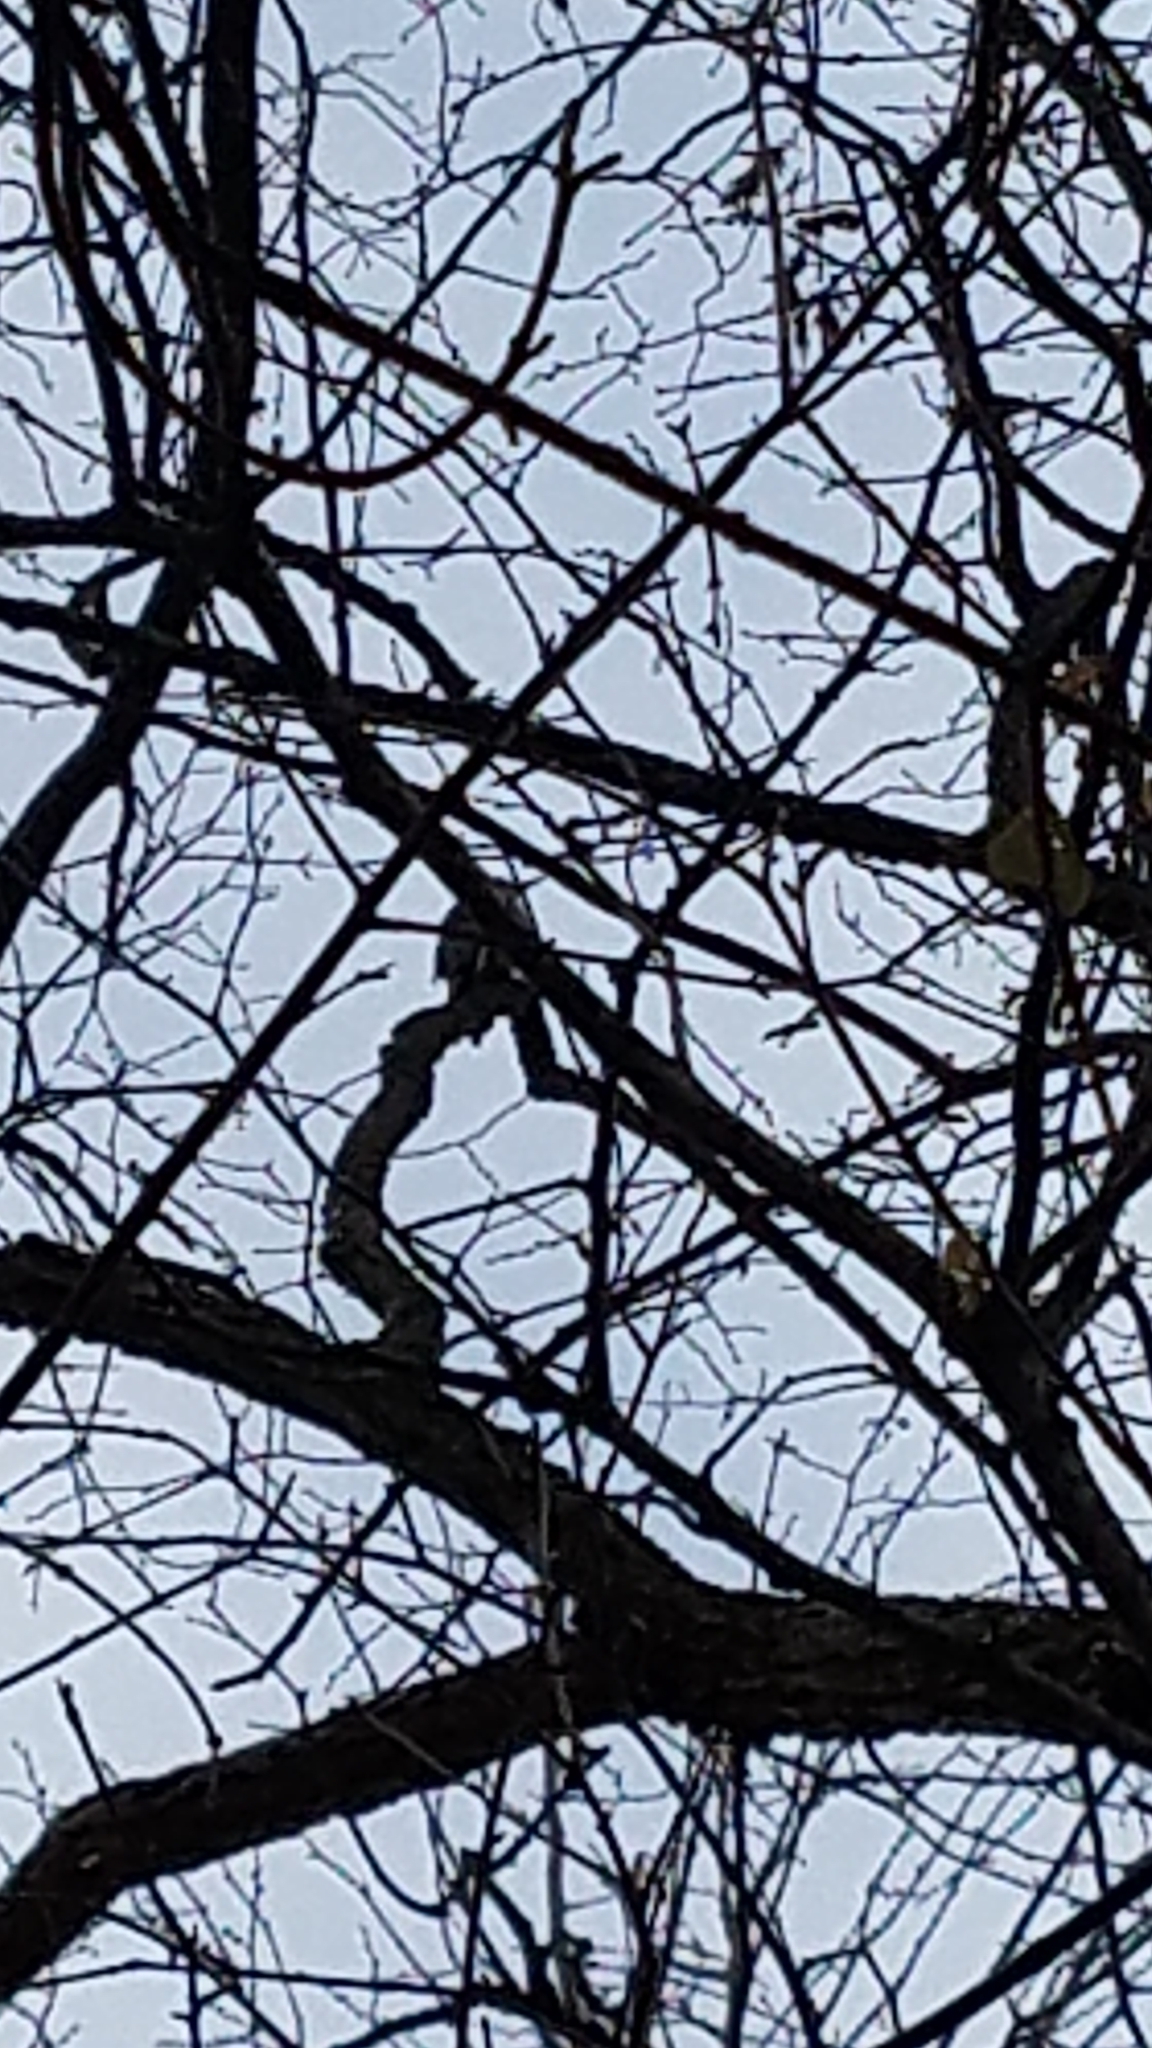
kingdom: Animalia
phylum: Chordata
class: Aves
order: Piciformes
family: Picidae
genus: Melanerpes
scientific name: Melanerpes carolinus
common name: Red-bellied woodpecker
